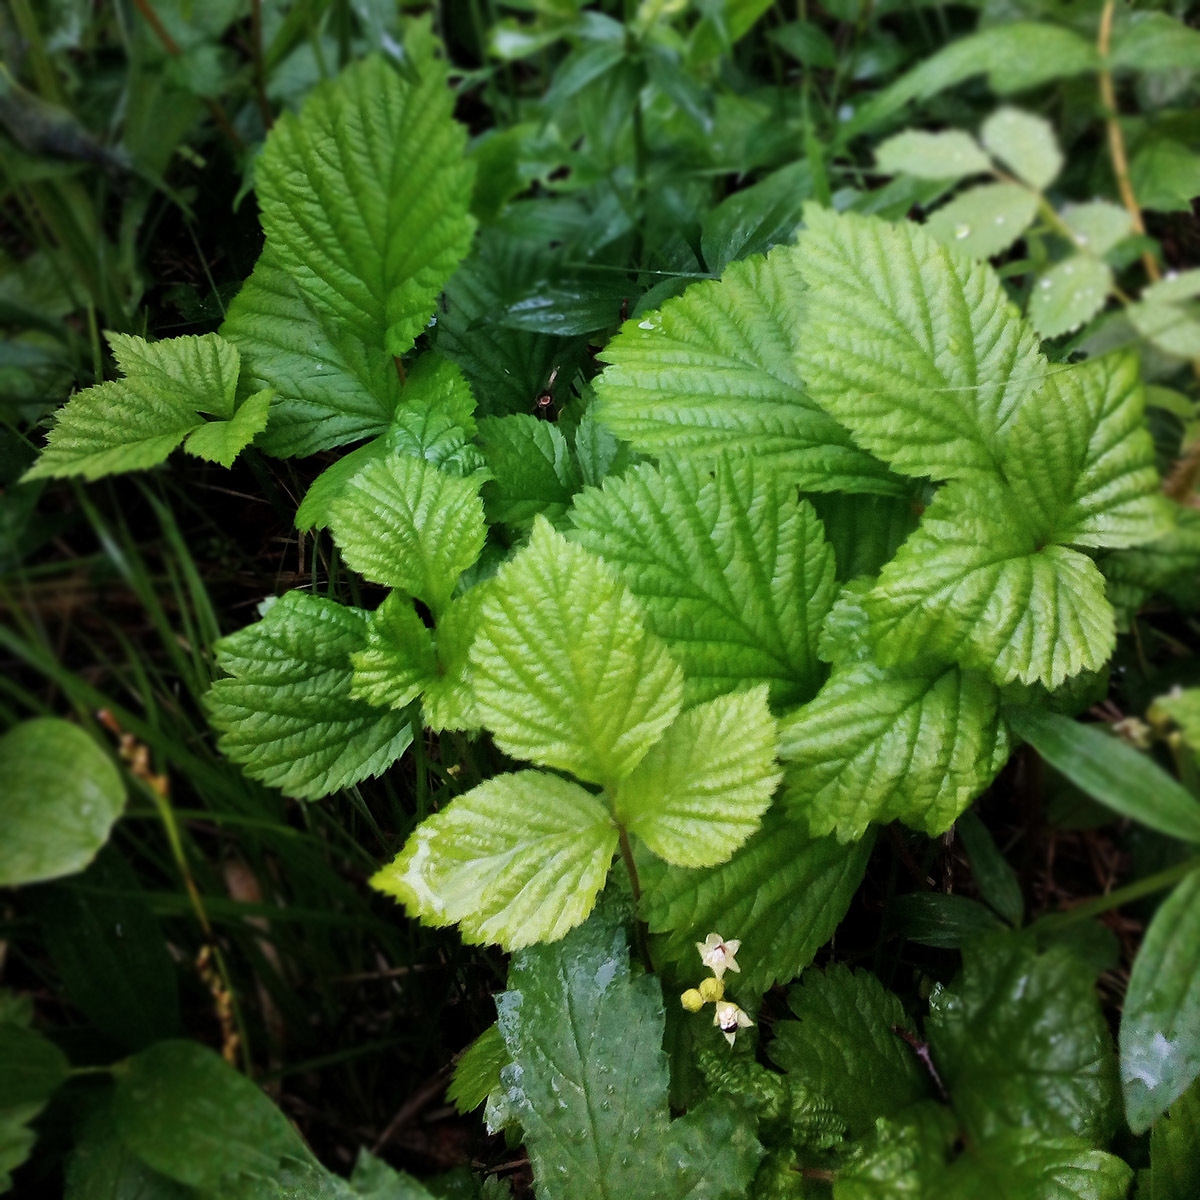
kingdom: Plantae
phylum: Tracheophyta
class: Magnoliopsida
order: Rosales
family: Rosaceae
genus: Rubus
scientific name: Rubus saxatilis
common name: Stone bramble
